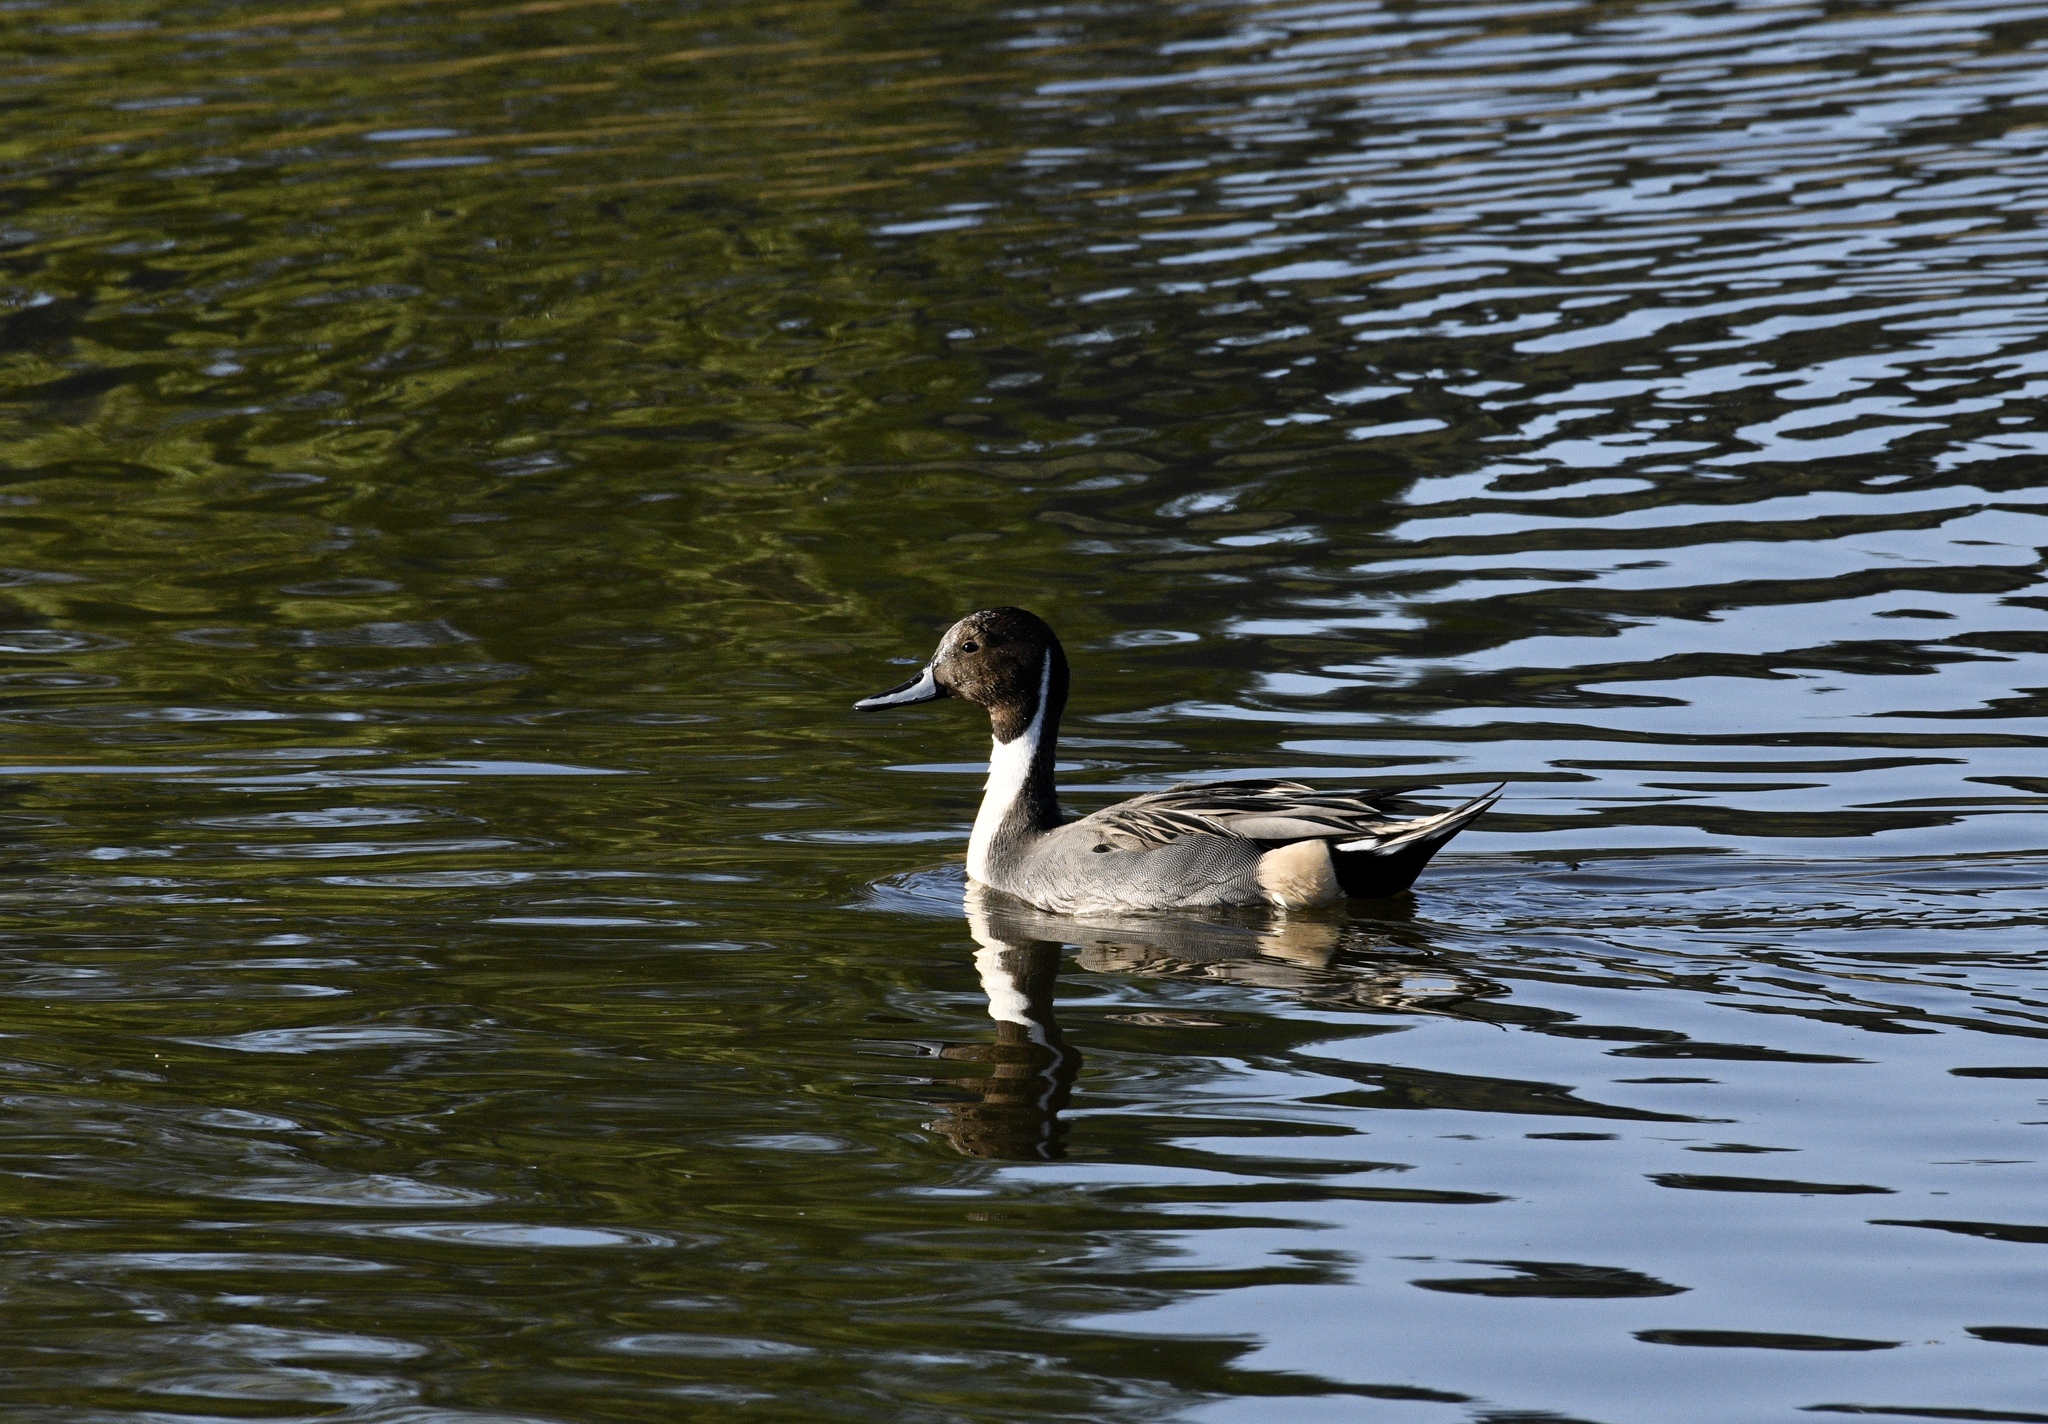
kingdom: Animalia
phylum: Chordata
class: Aves
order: Anseriformes
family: Anatidae
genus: Anas
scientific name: Anas acuta
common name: Northern pintail
